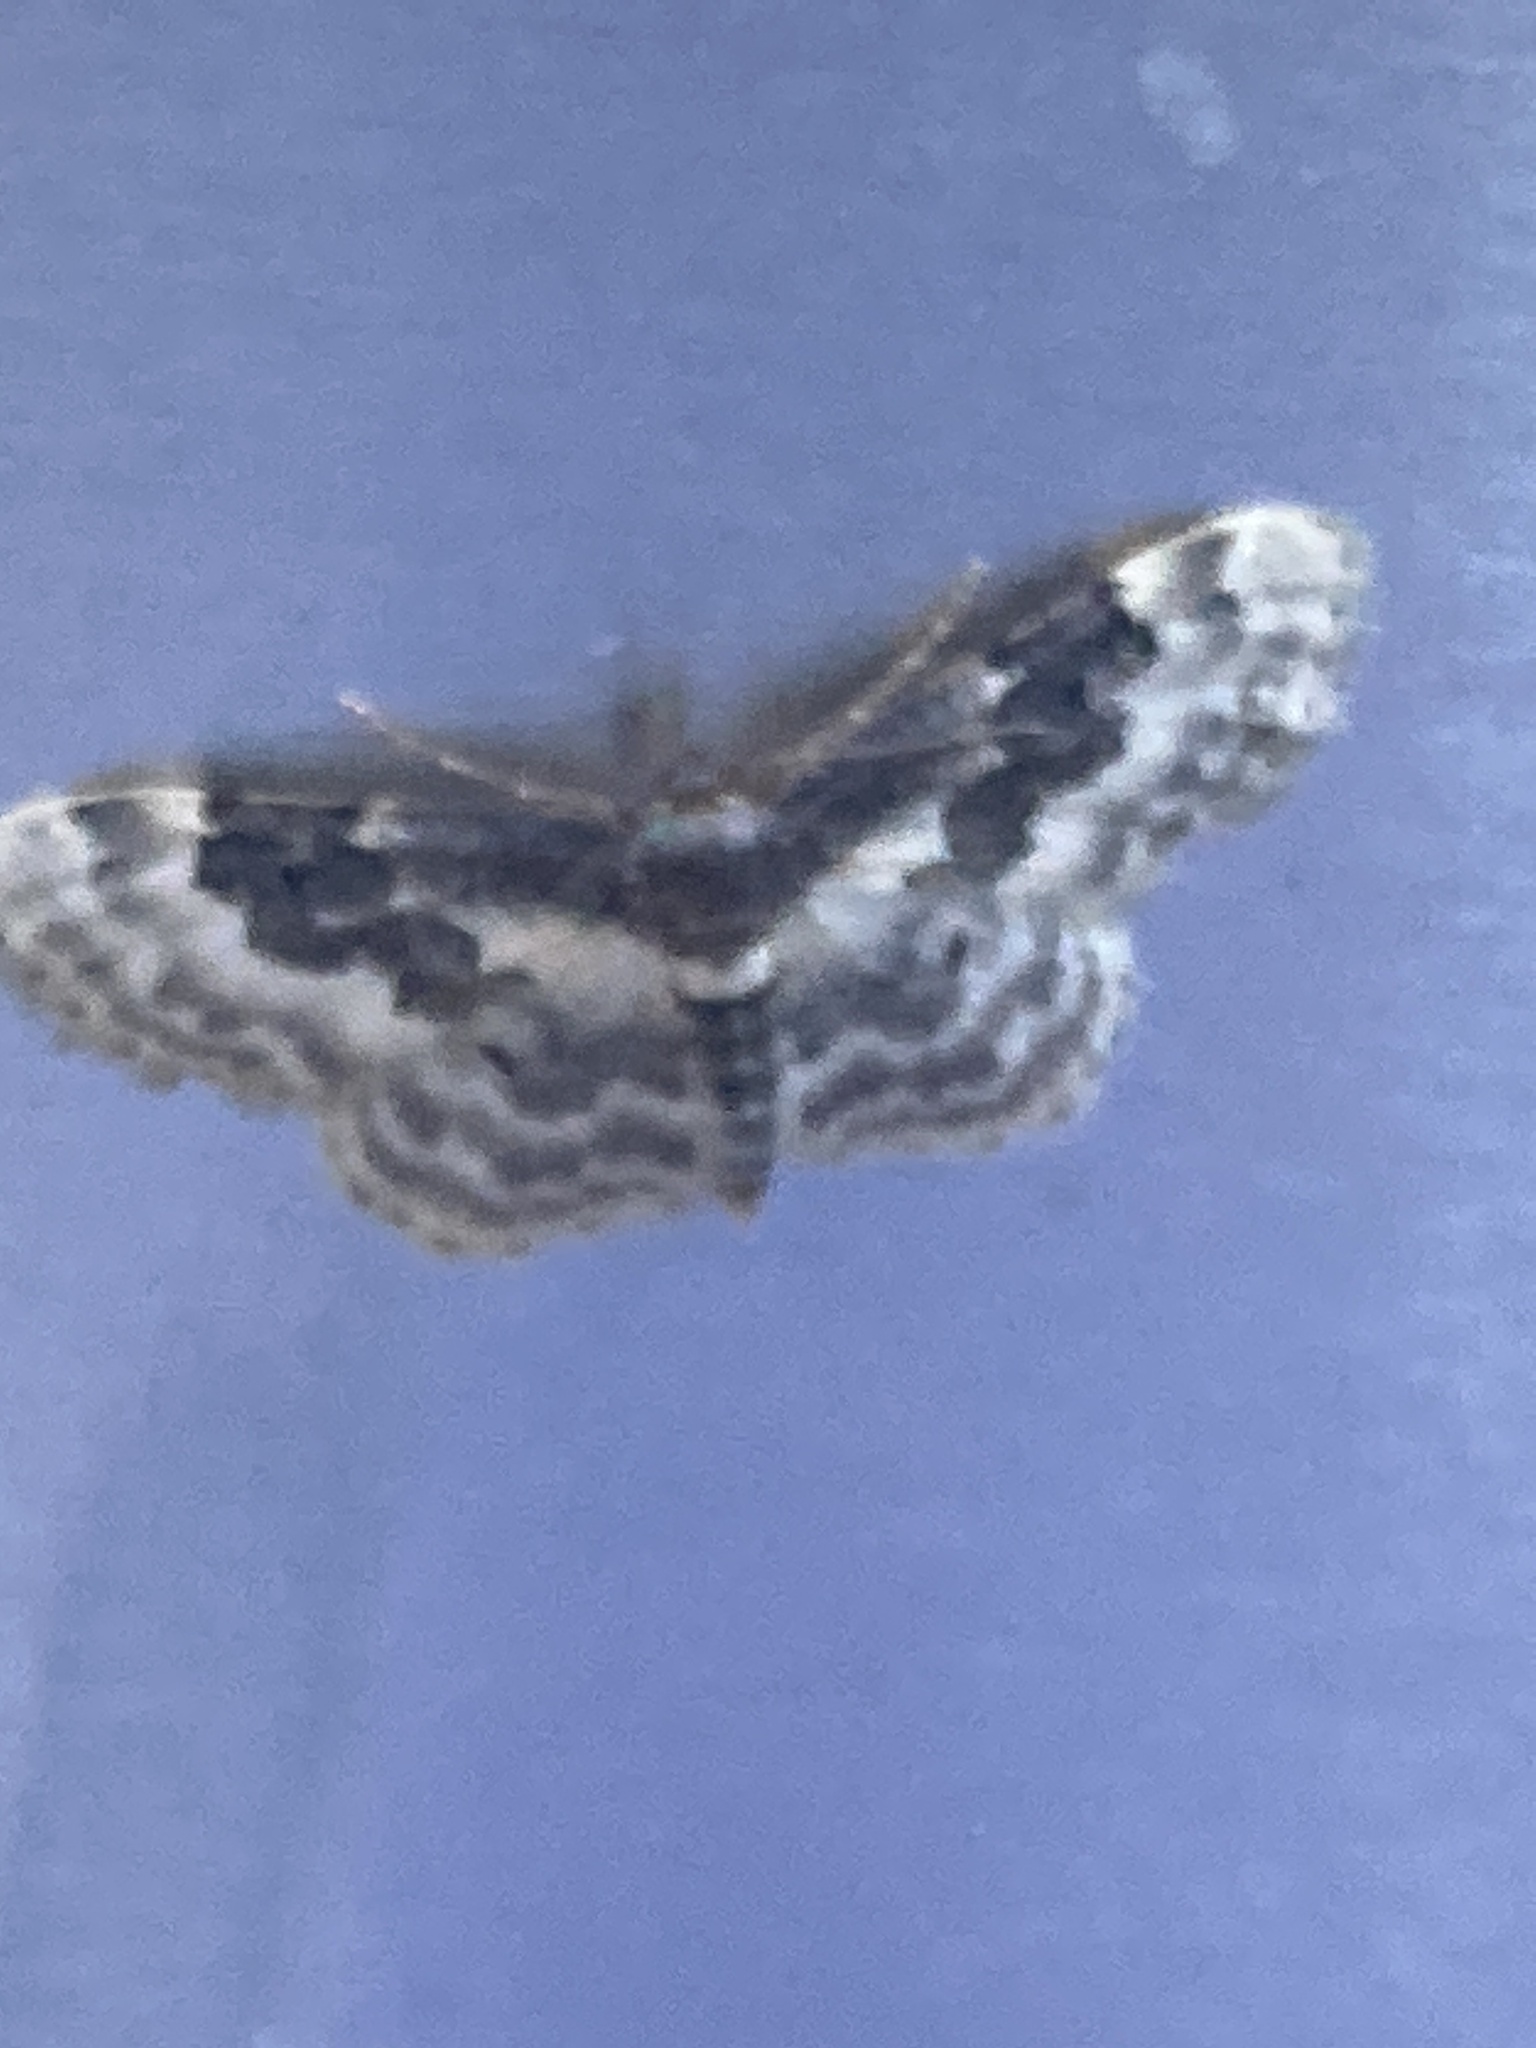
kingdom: Animalia
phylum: Arthropoda
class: Insecta
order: Lepidoptera
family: Geometridae
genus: Idaea
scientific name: Idaea rusticata
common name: Least carpet
